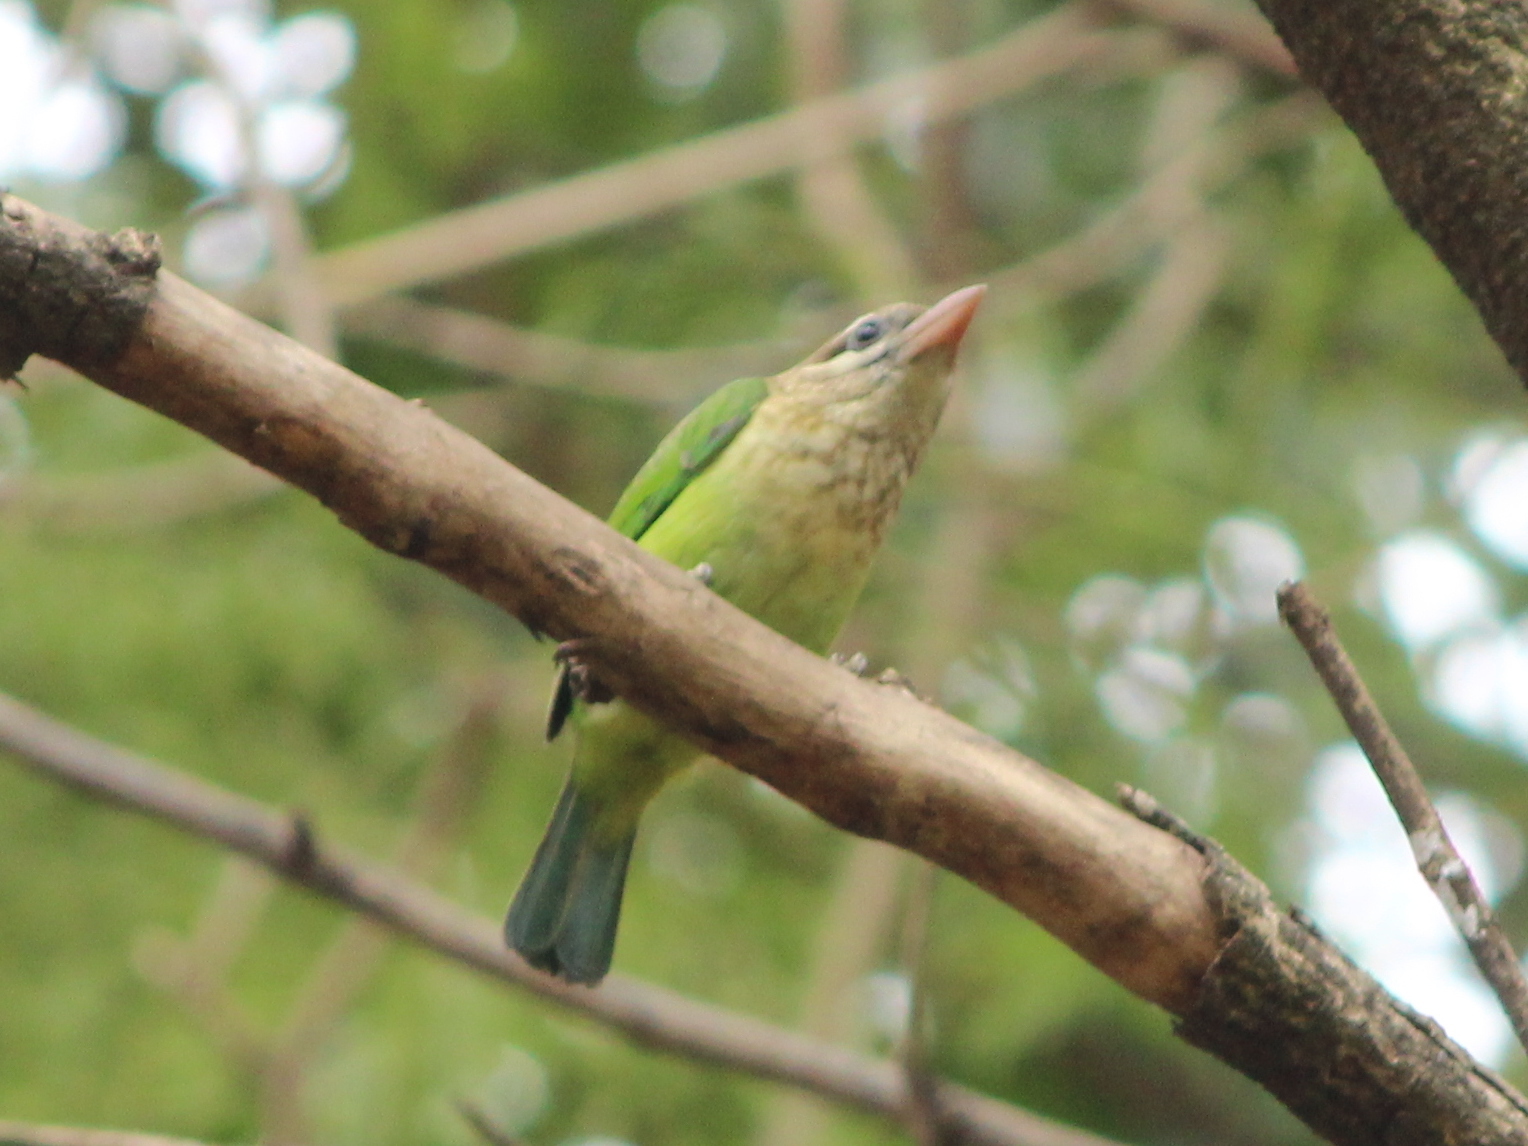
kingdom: Animalia
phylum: Chordata
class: Aves
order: Piciformes
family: Megalaimidae
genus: Psilopogon
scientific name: Psilopogon viridis
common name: White-cheeked barbet
